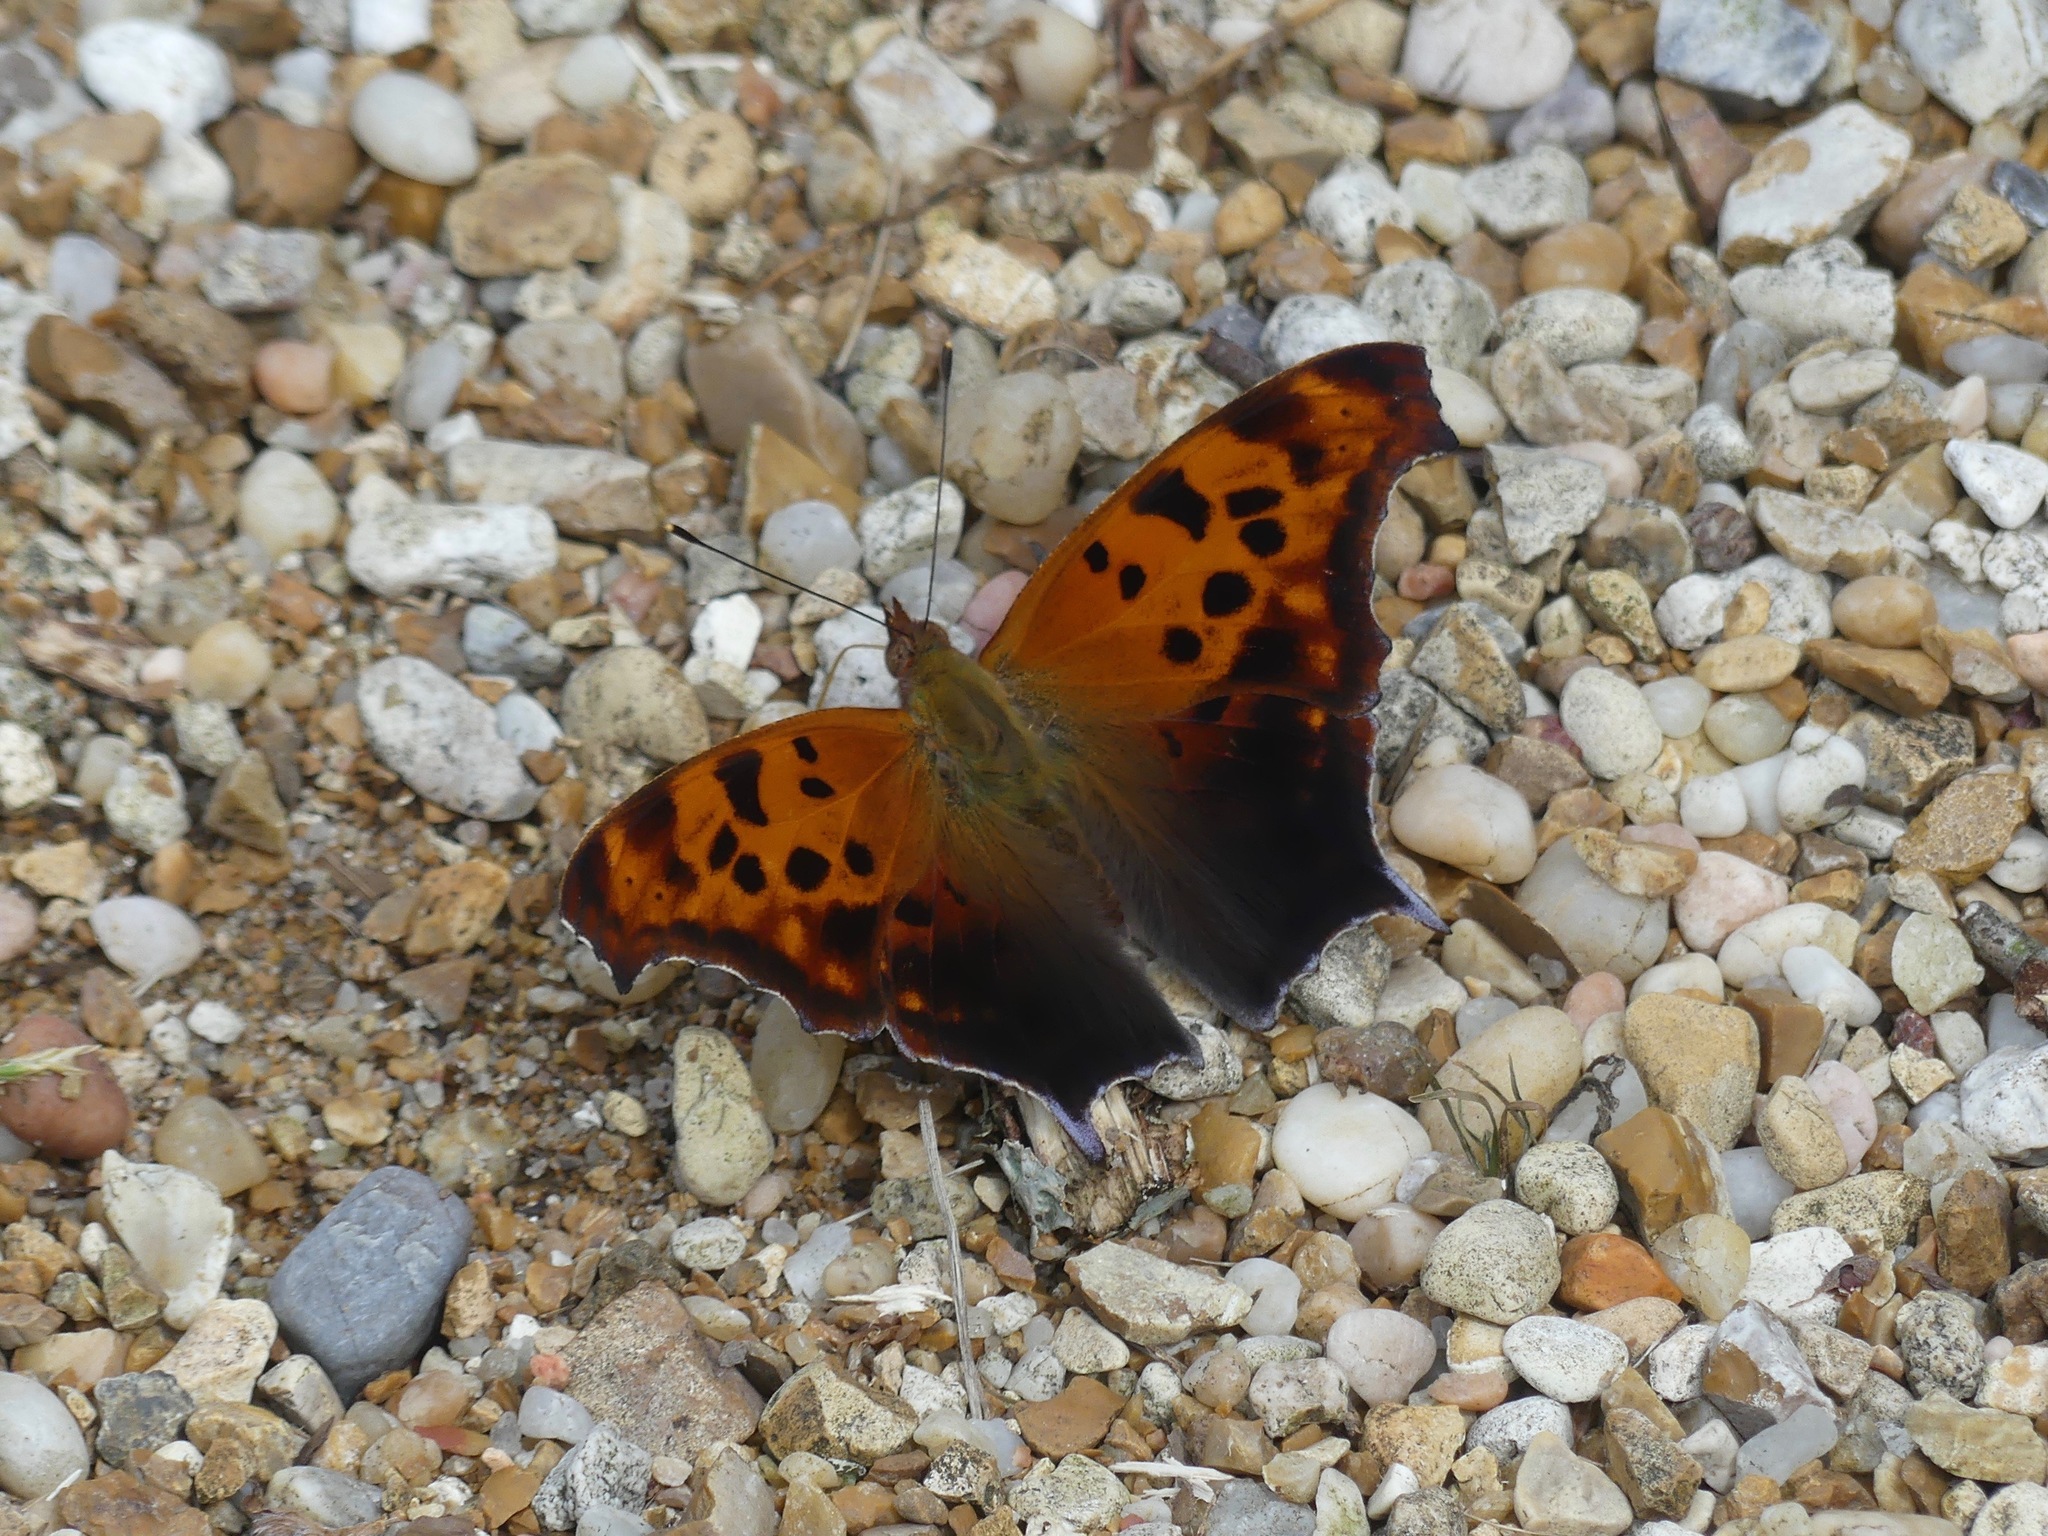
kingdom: Animalia
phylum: Arthropoda
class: Insecta
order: Lepidoptera
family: Nymphalidae
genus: Polygonia
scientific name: Polygonia interrogationis
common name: Question mark
